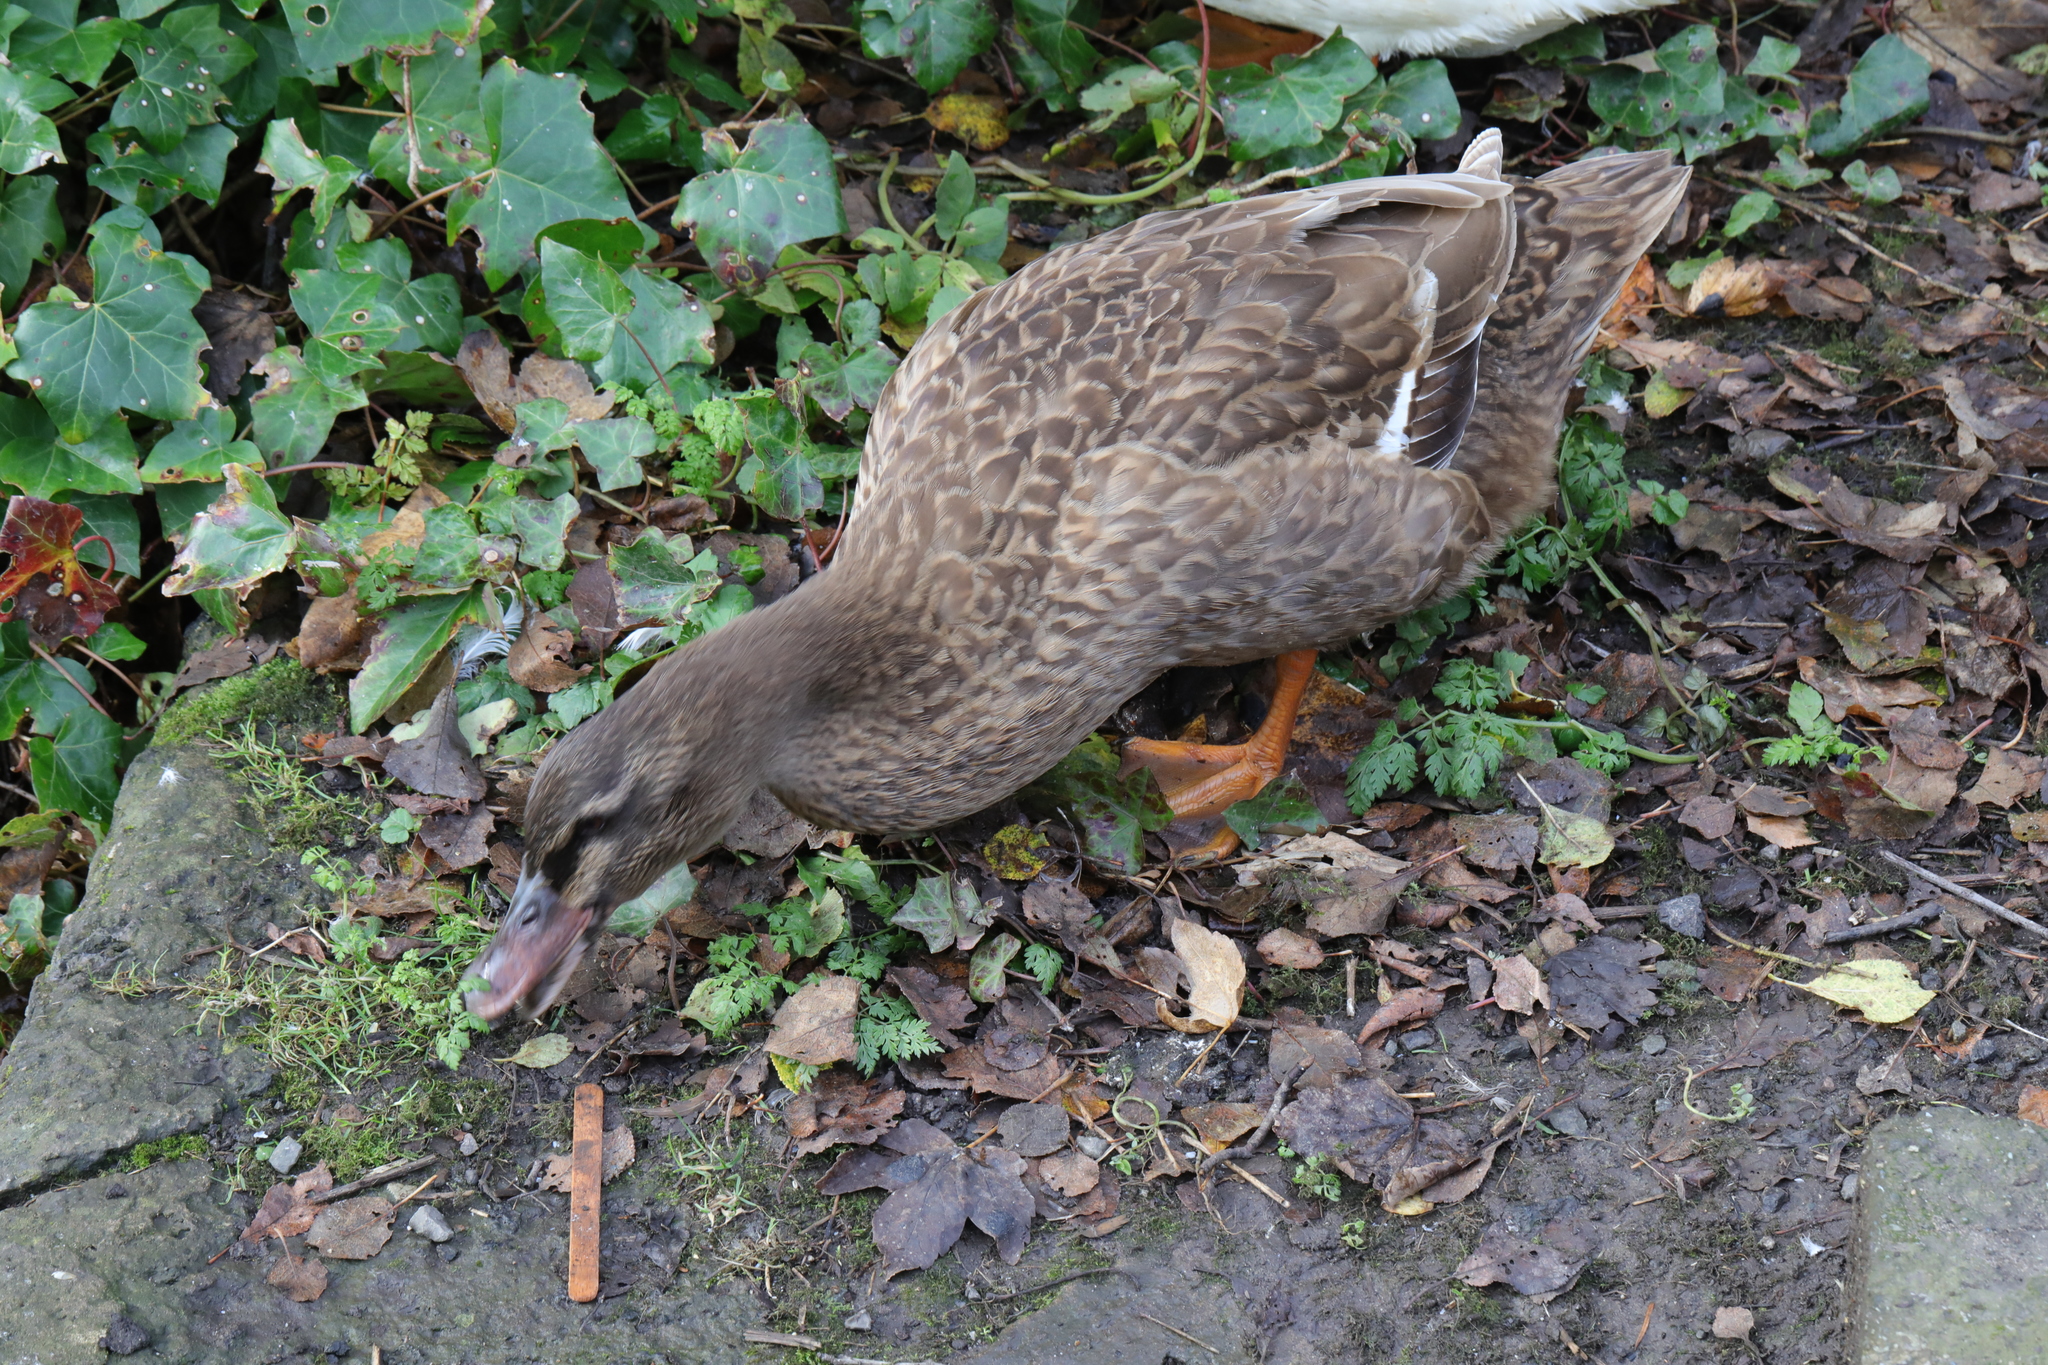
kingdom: Animalia
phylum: Chordata
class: Aves
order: Anseriformes
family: Anatidae
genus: Anas
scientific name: Anas platyrhynchos
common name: Mallard
